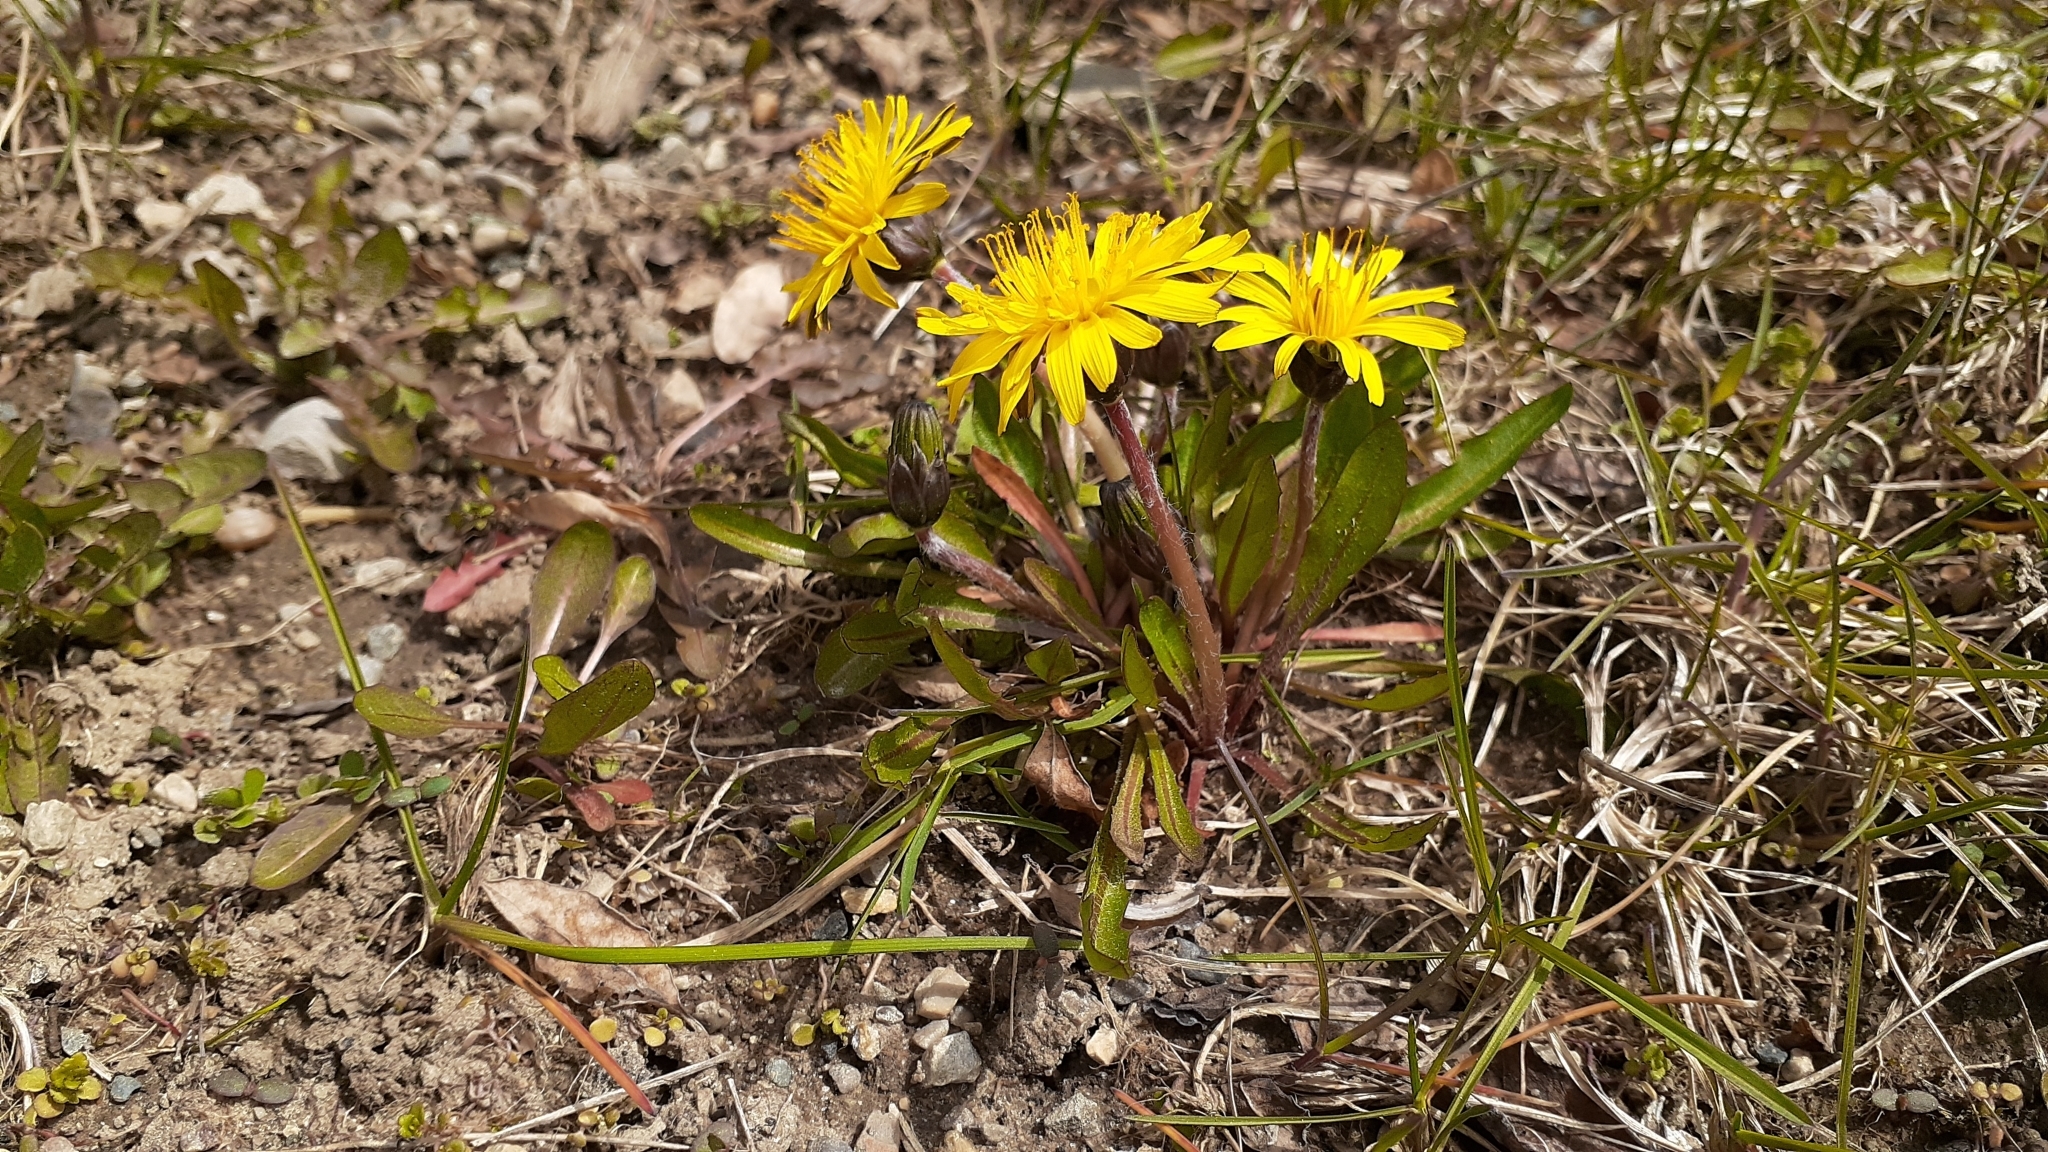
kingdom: Plantae
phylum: Tracheophyta
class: Magnoliopsida
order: Asterales
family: Asteraceae
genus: Taraxacum
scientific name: Taraxacum palustre
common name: Marsh dandelion
